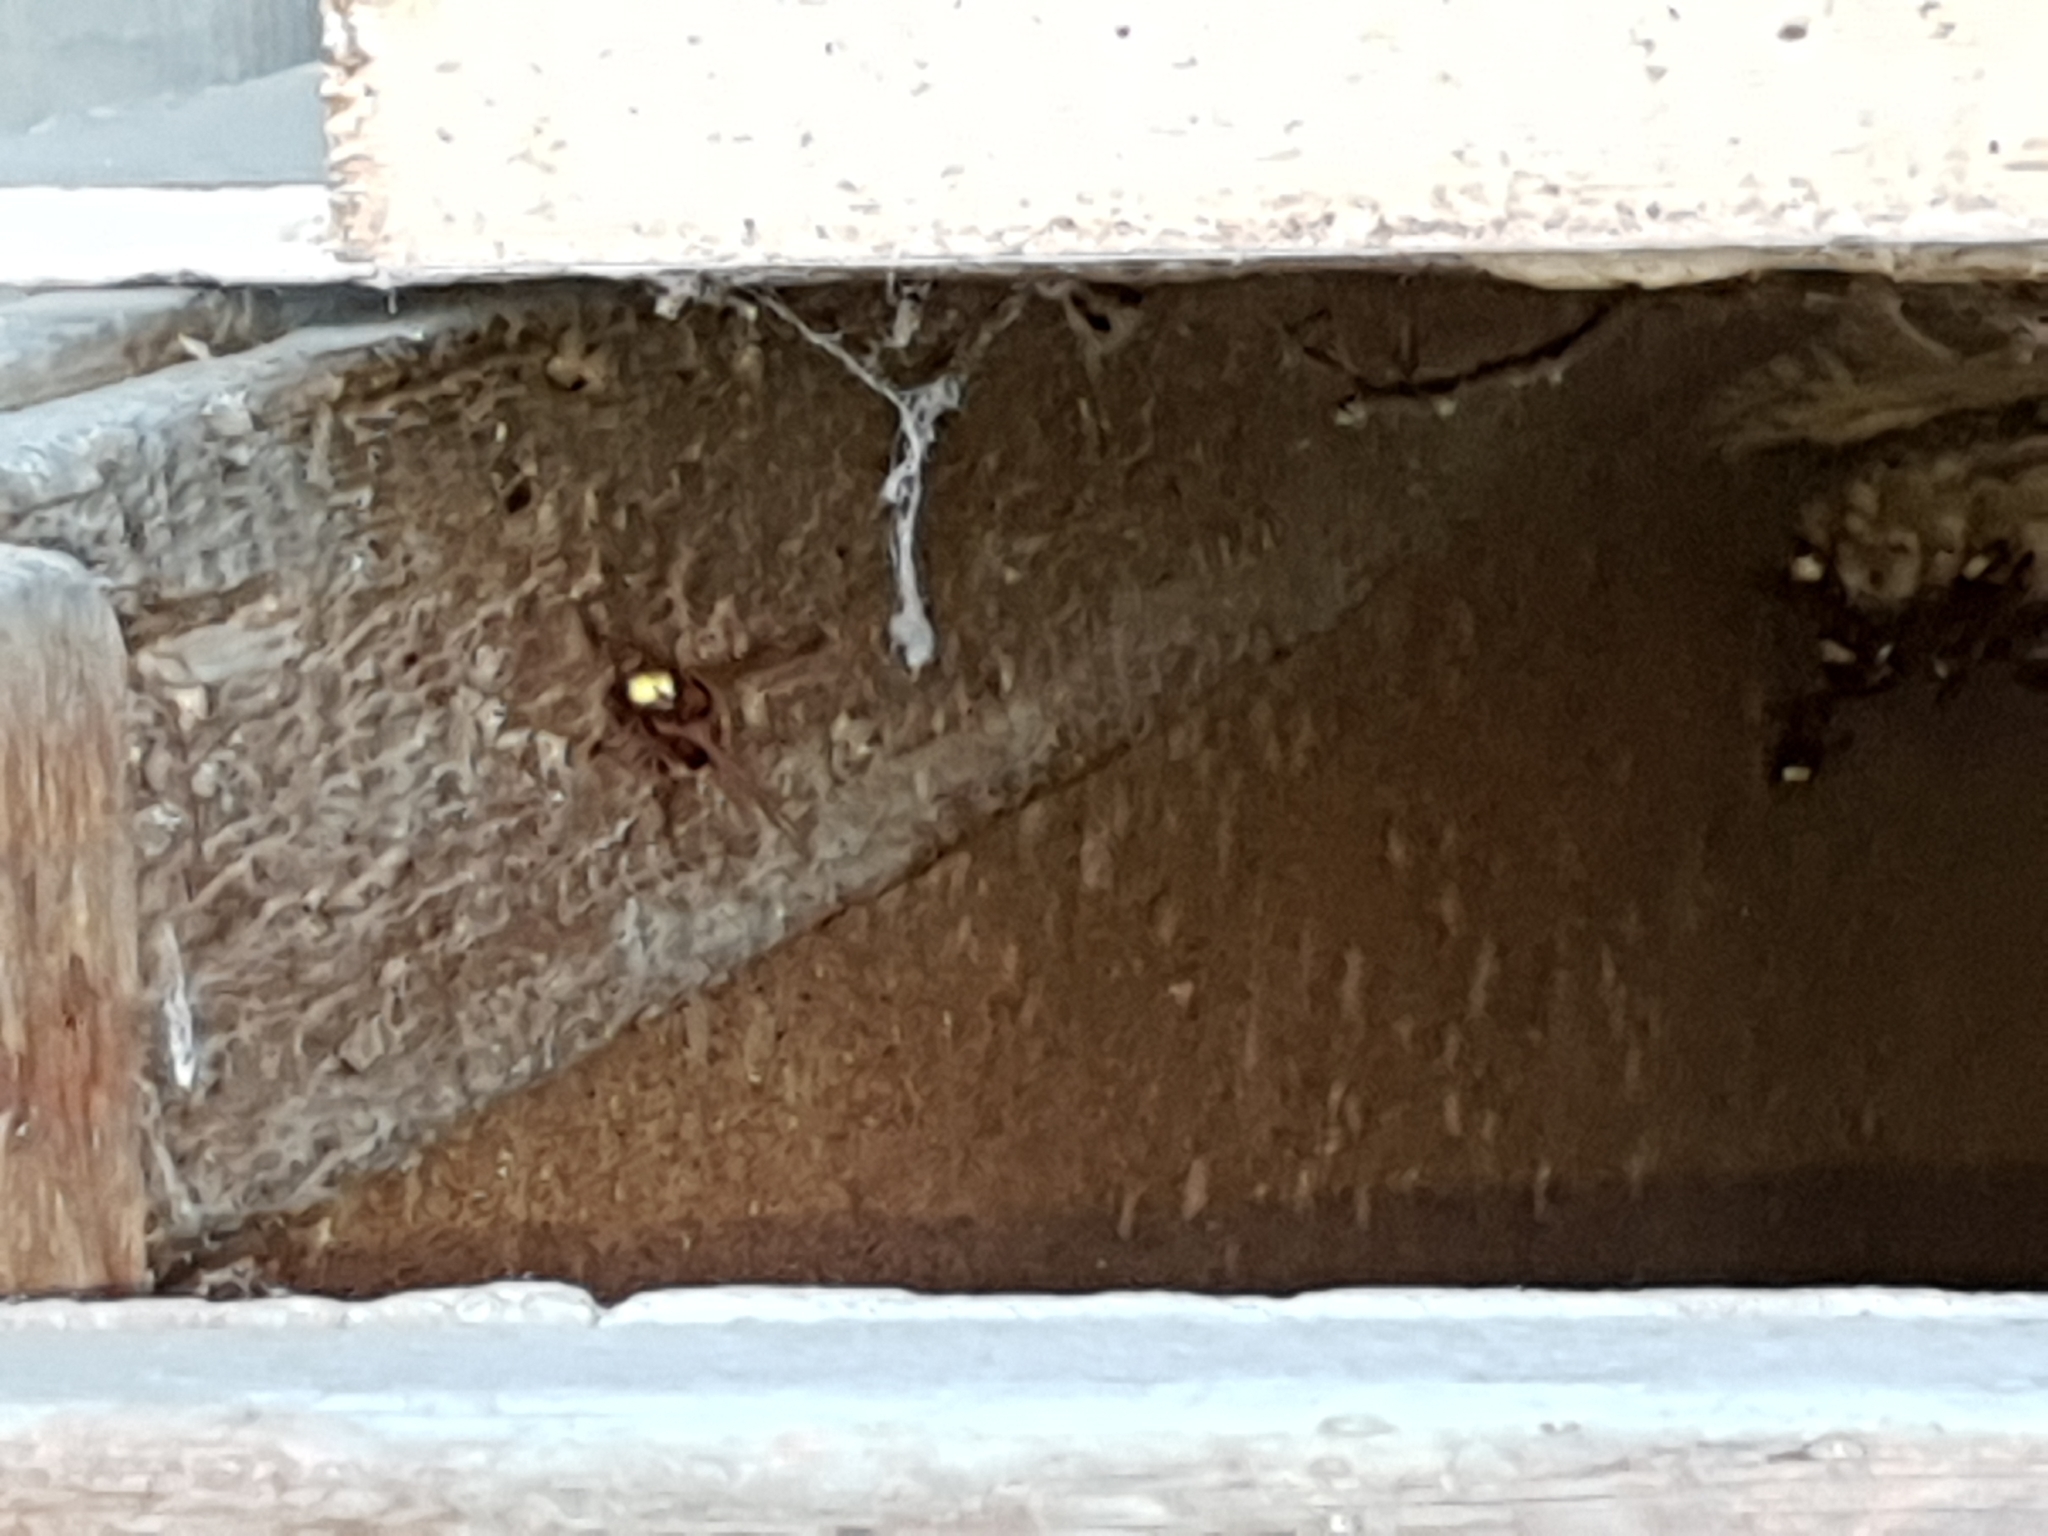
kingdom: Animalia
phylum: Arthropoda
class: Insecta
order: Hymenoptera
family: Vespidae
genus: Vespa
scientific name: Vespa orientalis
